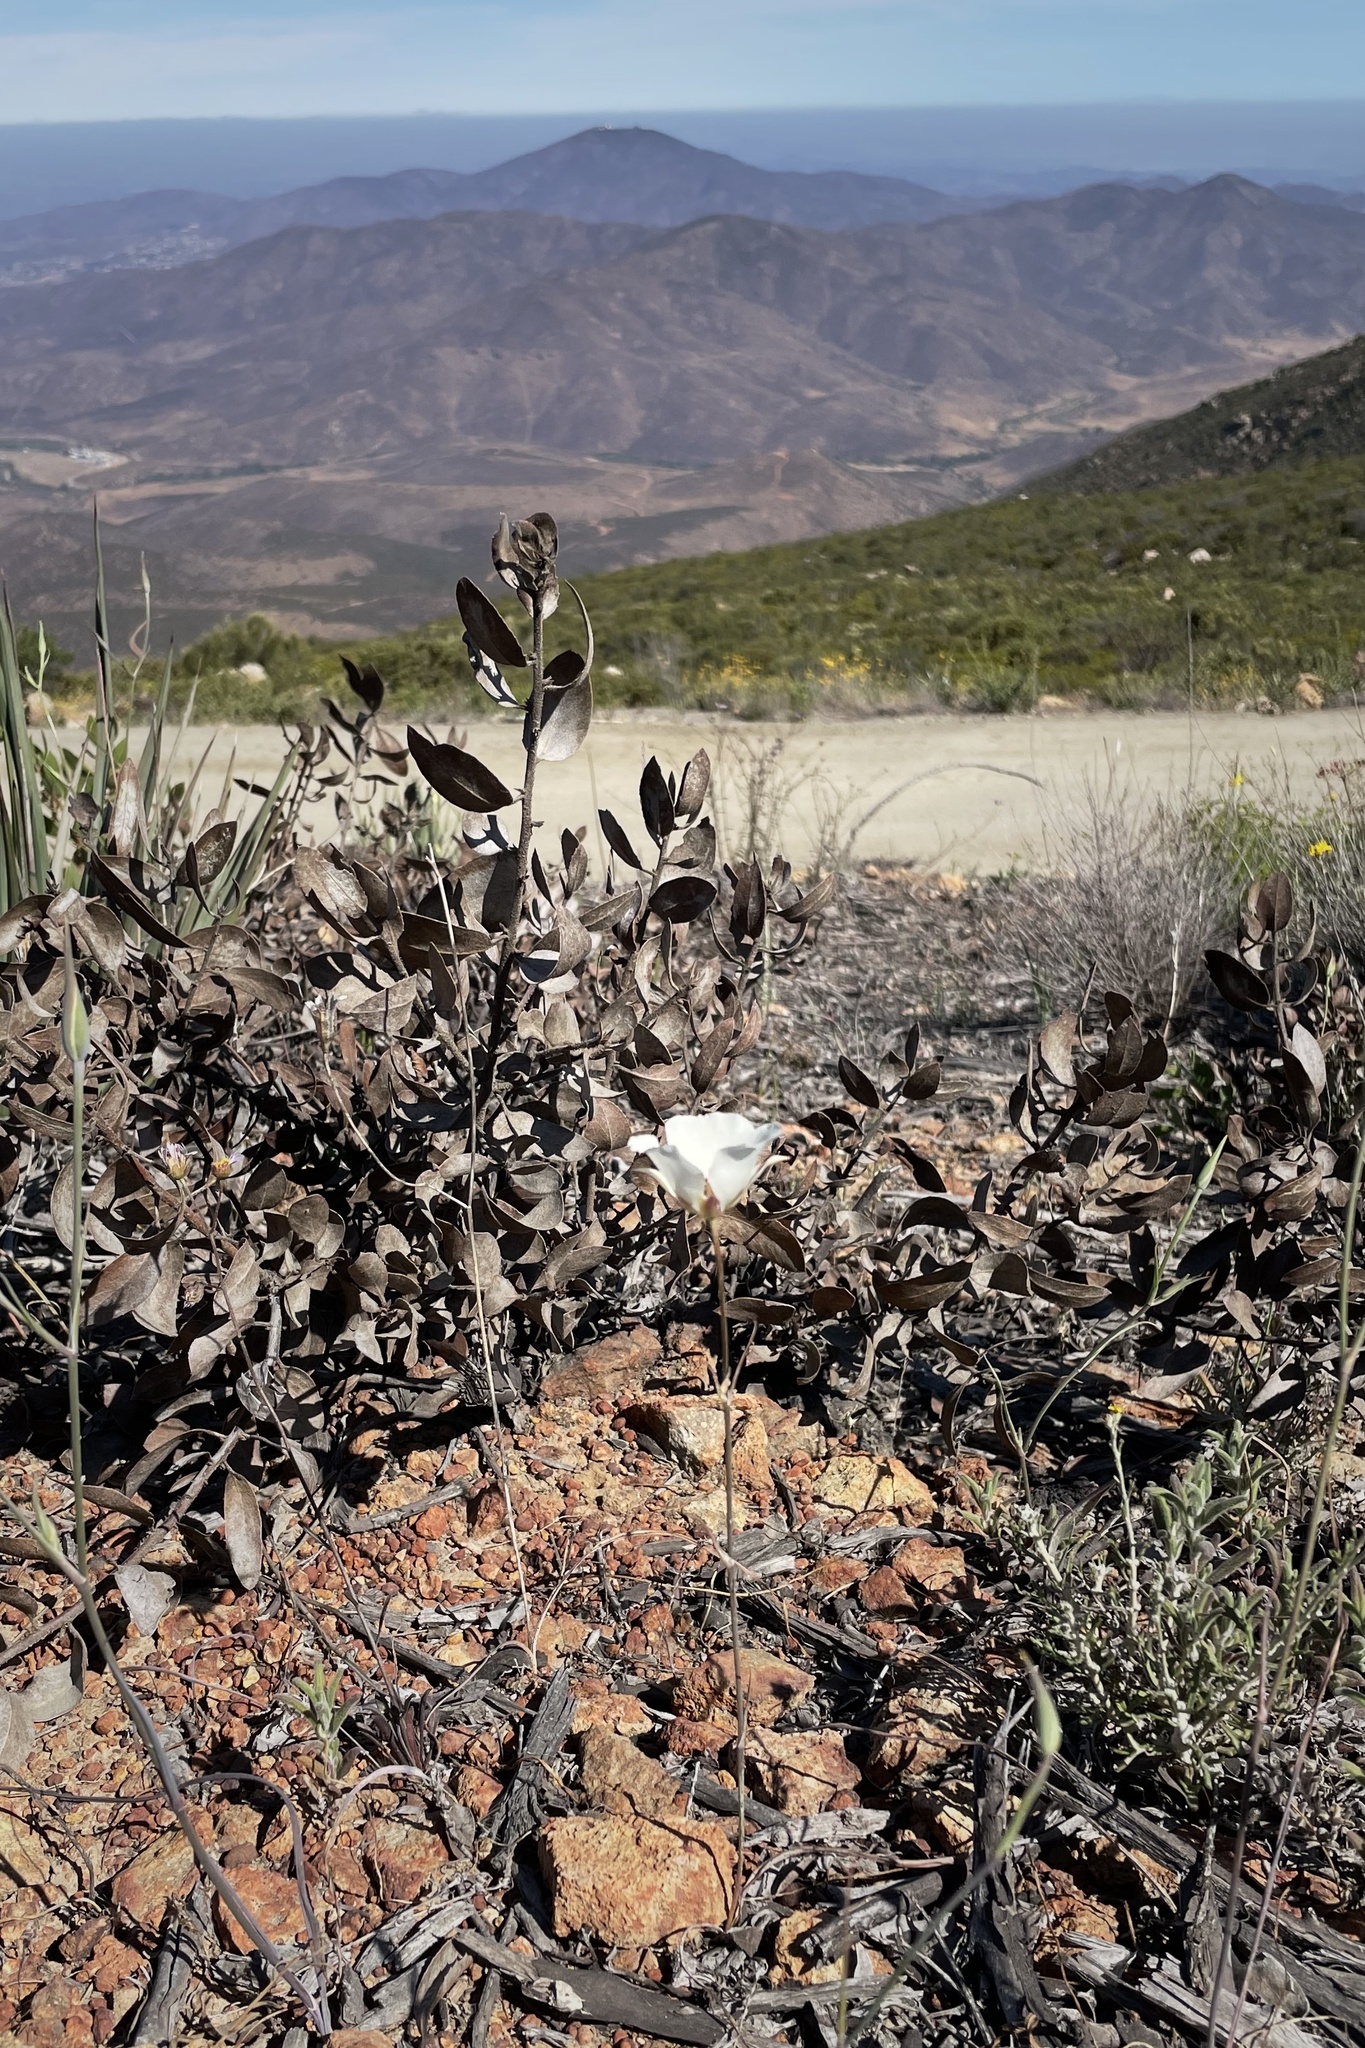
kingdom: Plantae
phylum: Tracheophyta
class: Liliopsida
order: Liliales
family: Liliaceae
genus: Calochortus
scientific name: Calochortus dunnii
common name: Dunn's mariposa-lily
